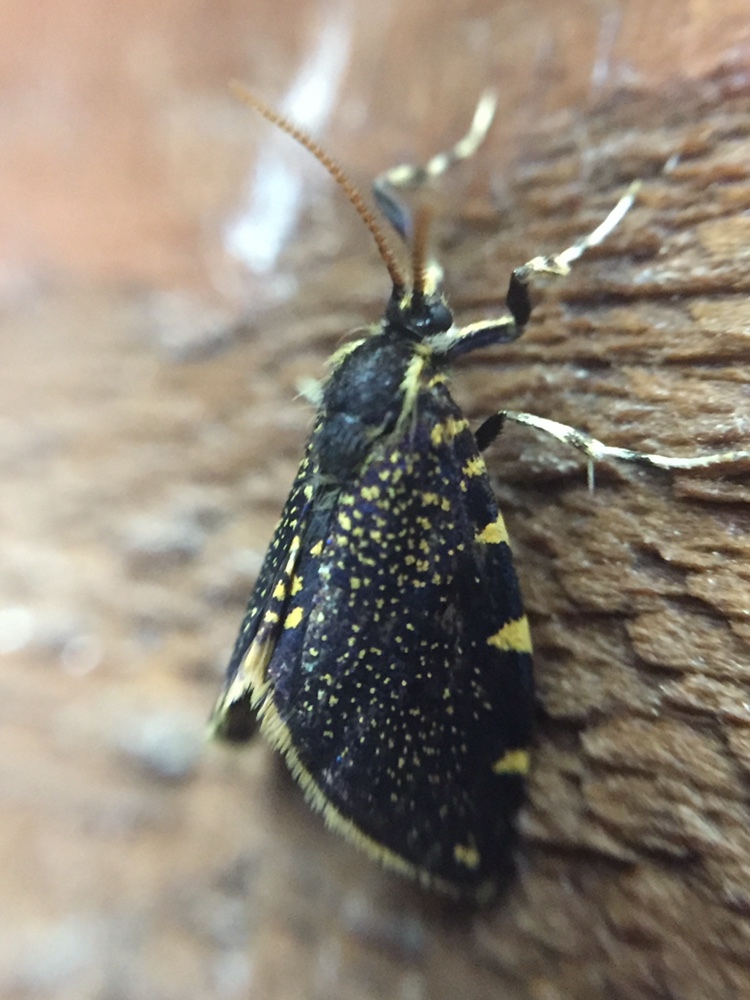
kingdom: Animalia
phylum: Arthropoda
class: Insecta
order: Lepidoptera
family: Psychidae
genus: Cebysa
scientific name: Cebysa leucotelus
